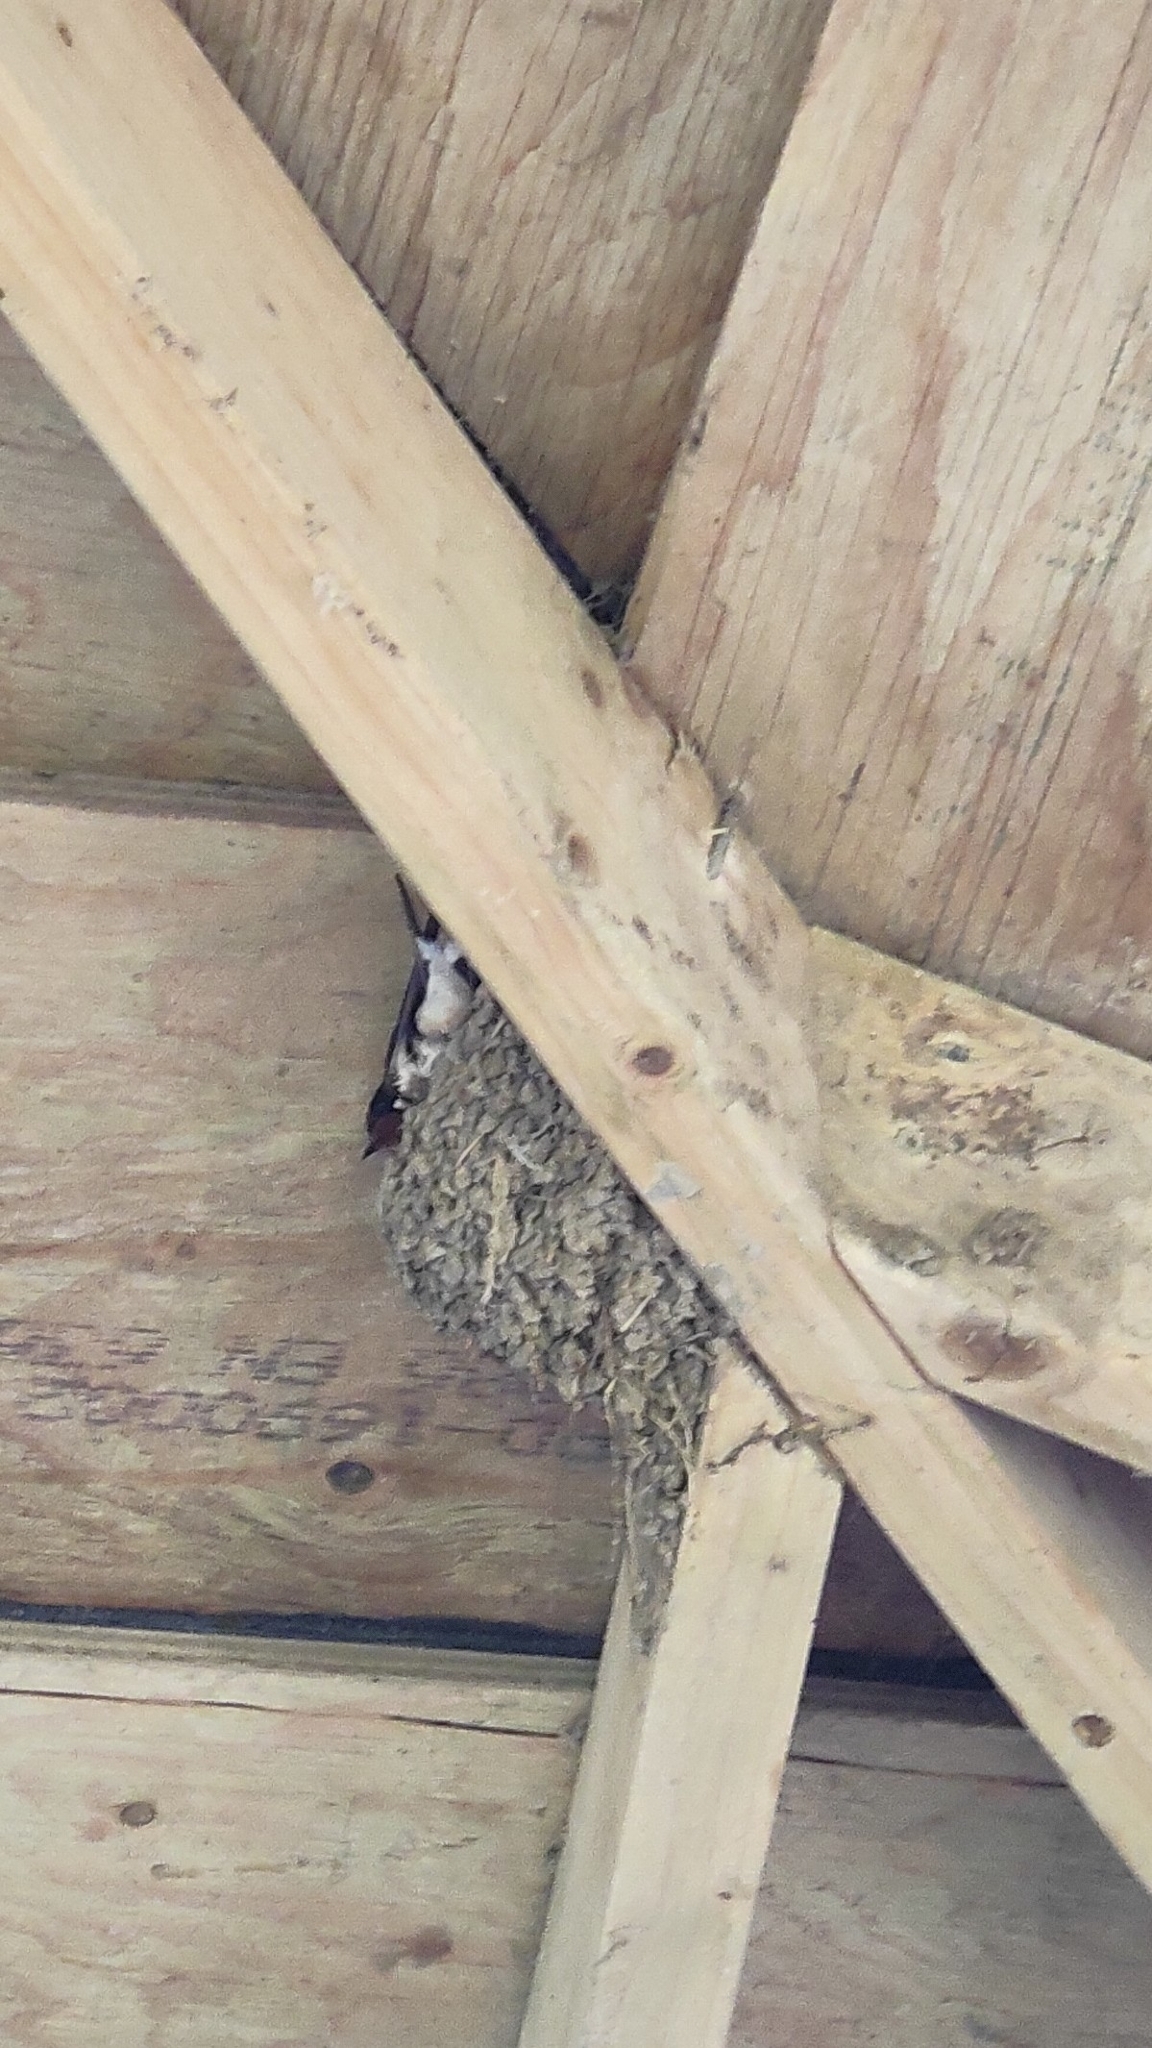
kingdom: Animalia
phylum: Chordata
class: Aves
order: Passeriformes
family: Hirundinidae
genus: Hirundo
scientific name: Hirundo rustica
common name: Barn swallow
